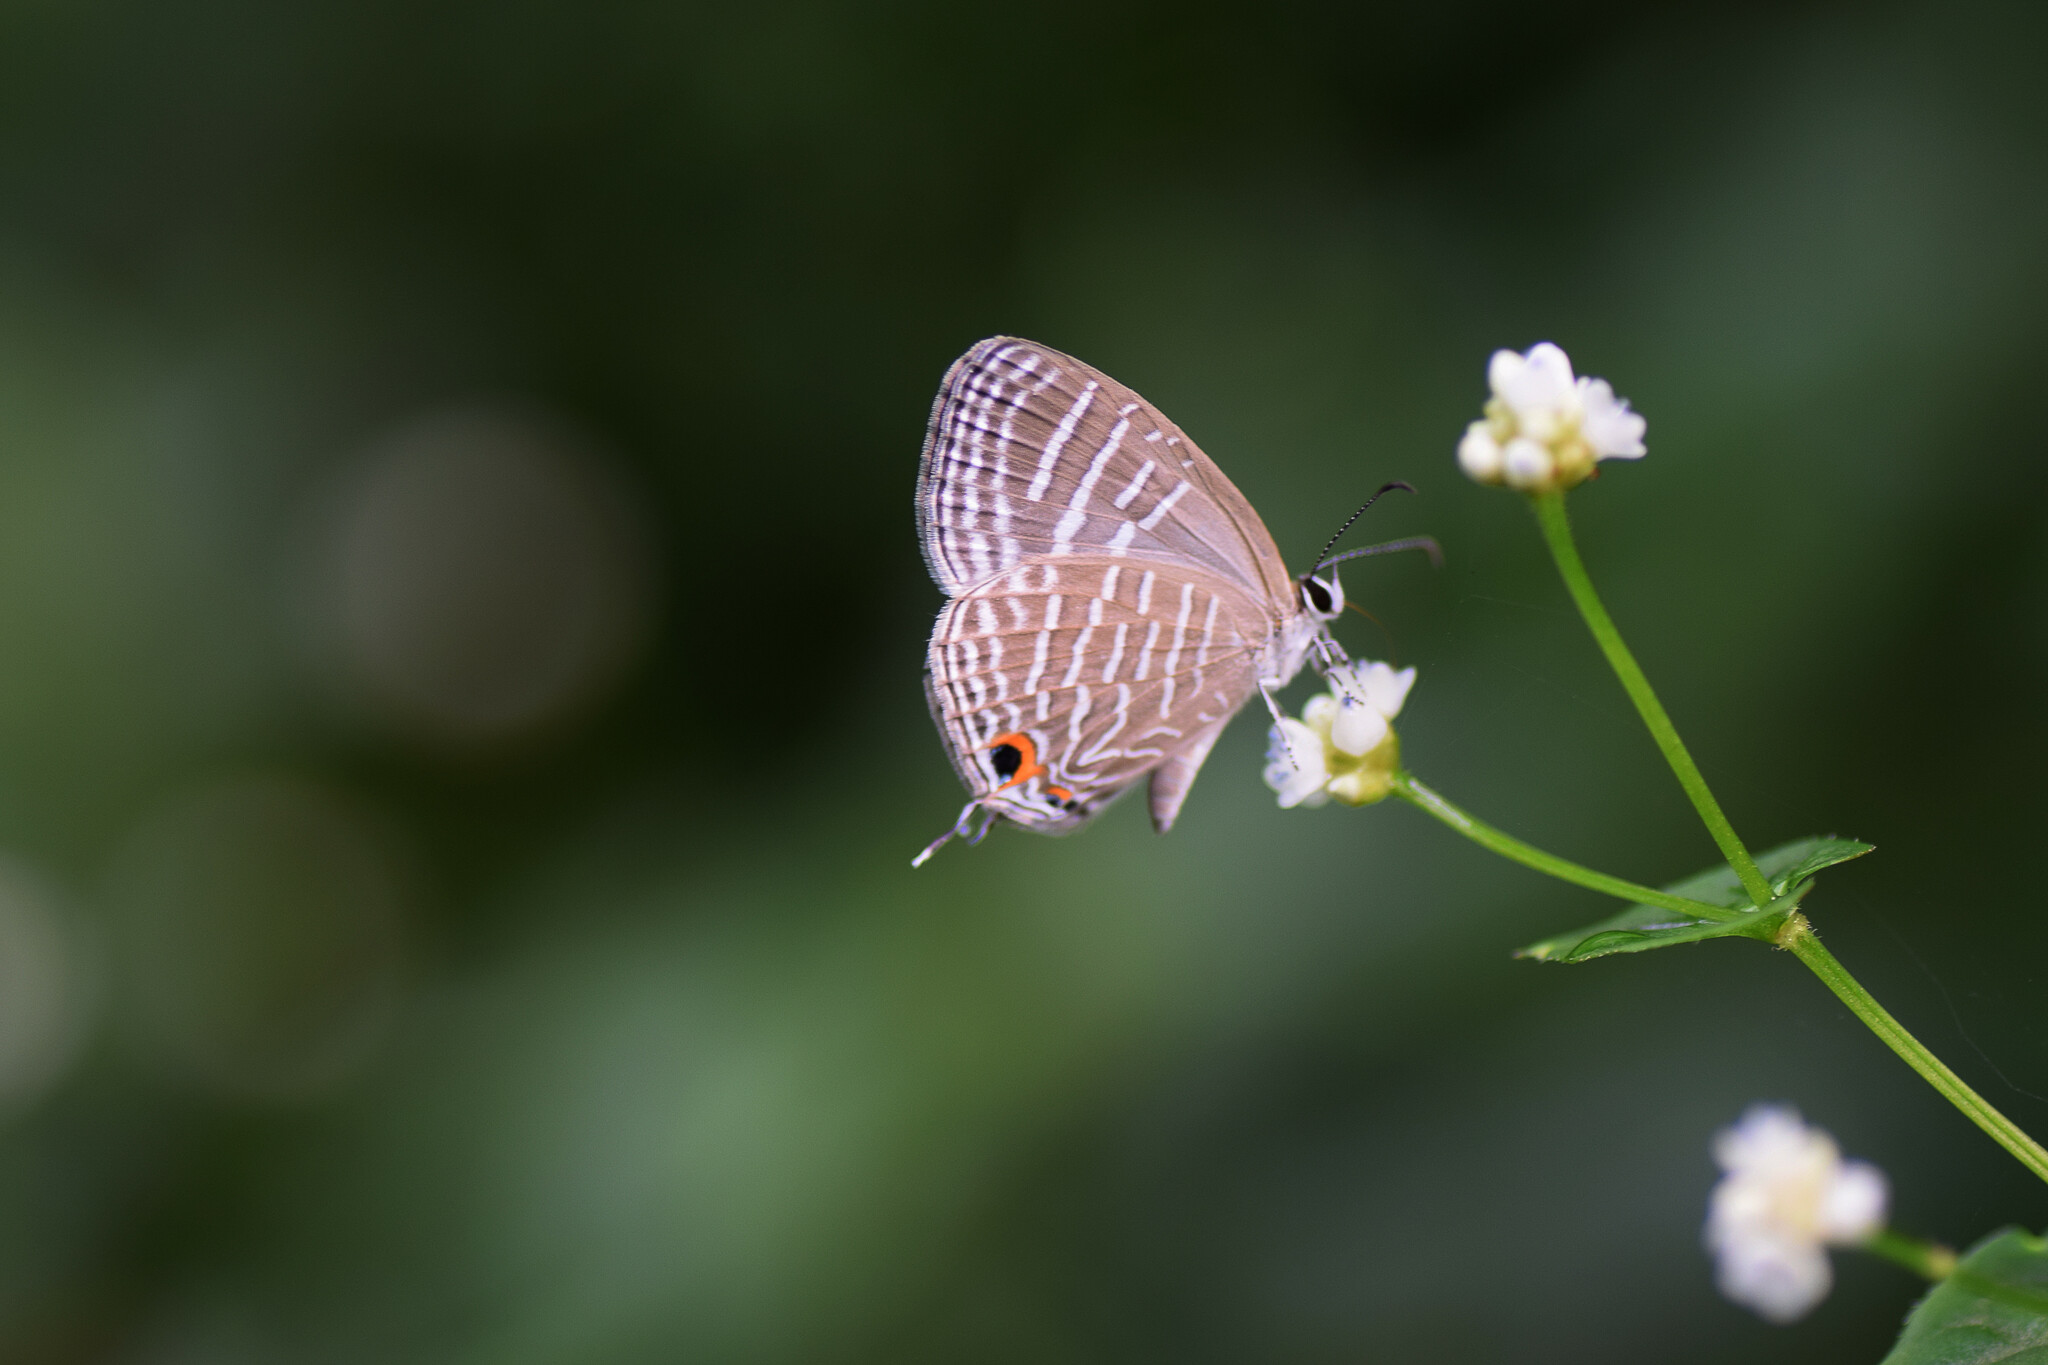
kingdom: Animalia
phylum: Arthropoda
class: Insecta
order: Lepidoptera
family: Lycaenidae
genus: Jamides
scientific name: Jamides celeno
